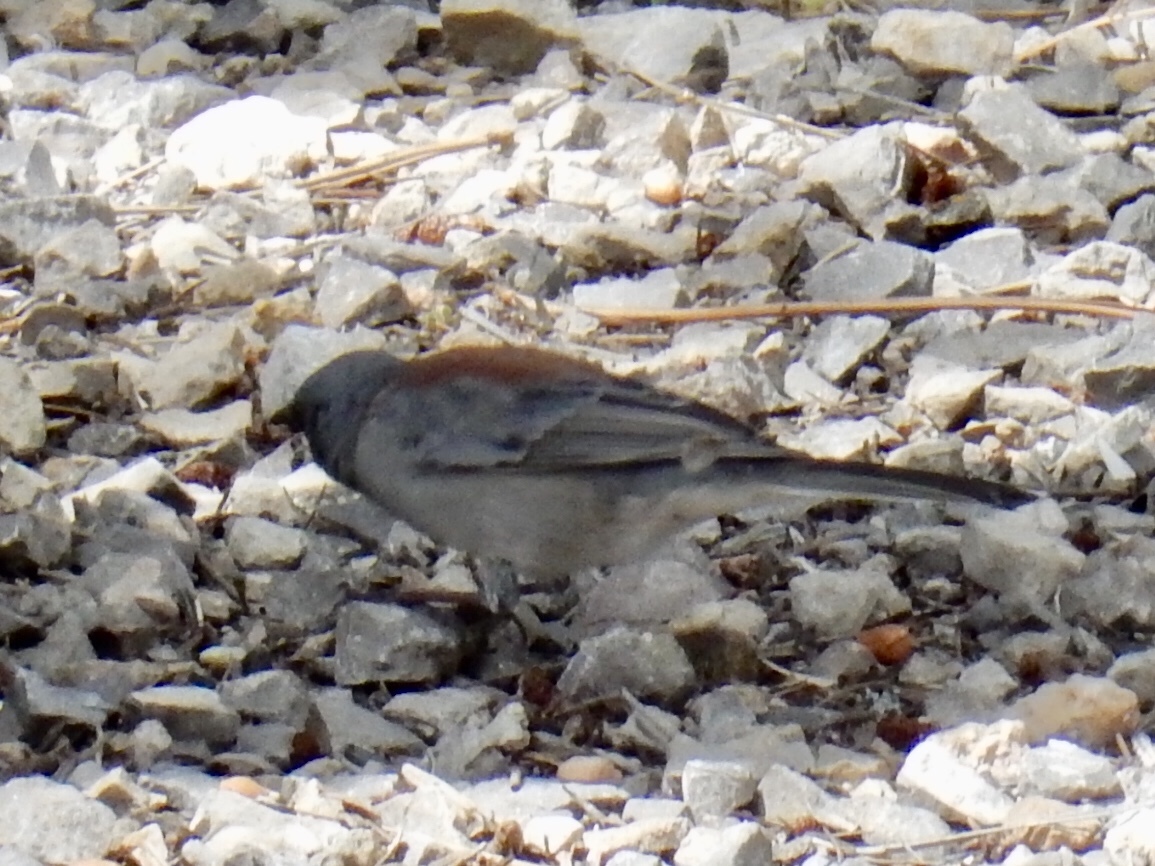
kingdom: Animalia
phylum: Chordata
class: Aves
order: Passeriformes
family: Passerellidae
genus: Junco
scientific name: Junco hyemalis
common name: Dark-eyed junco
